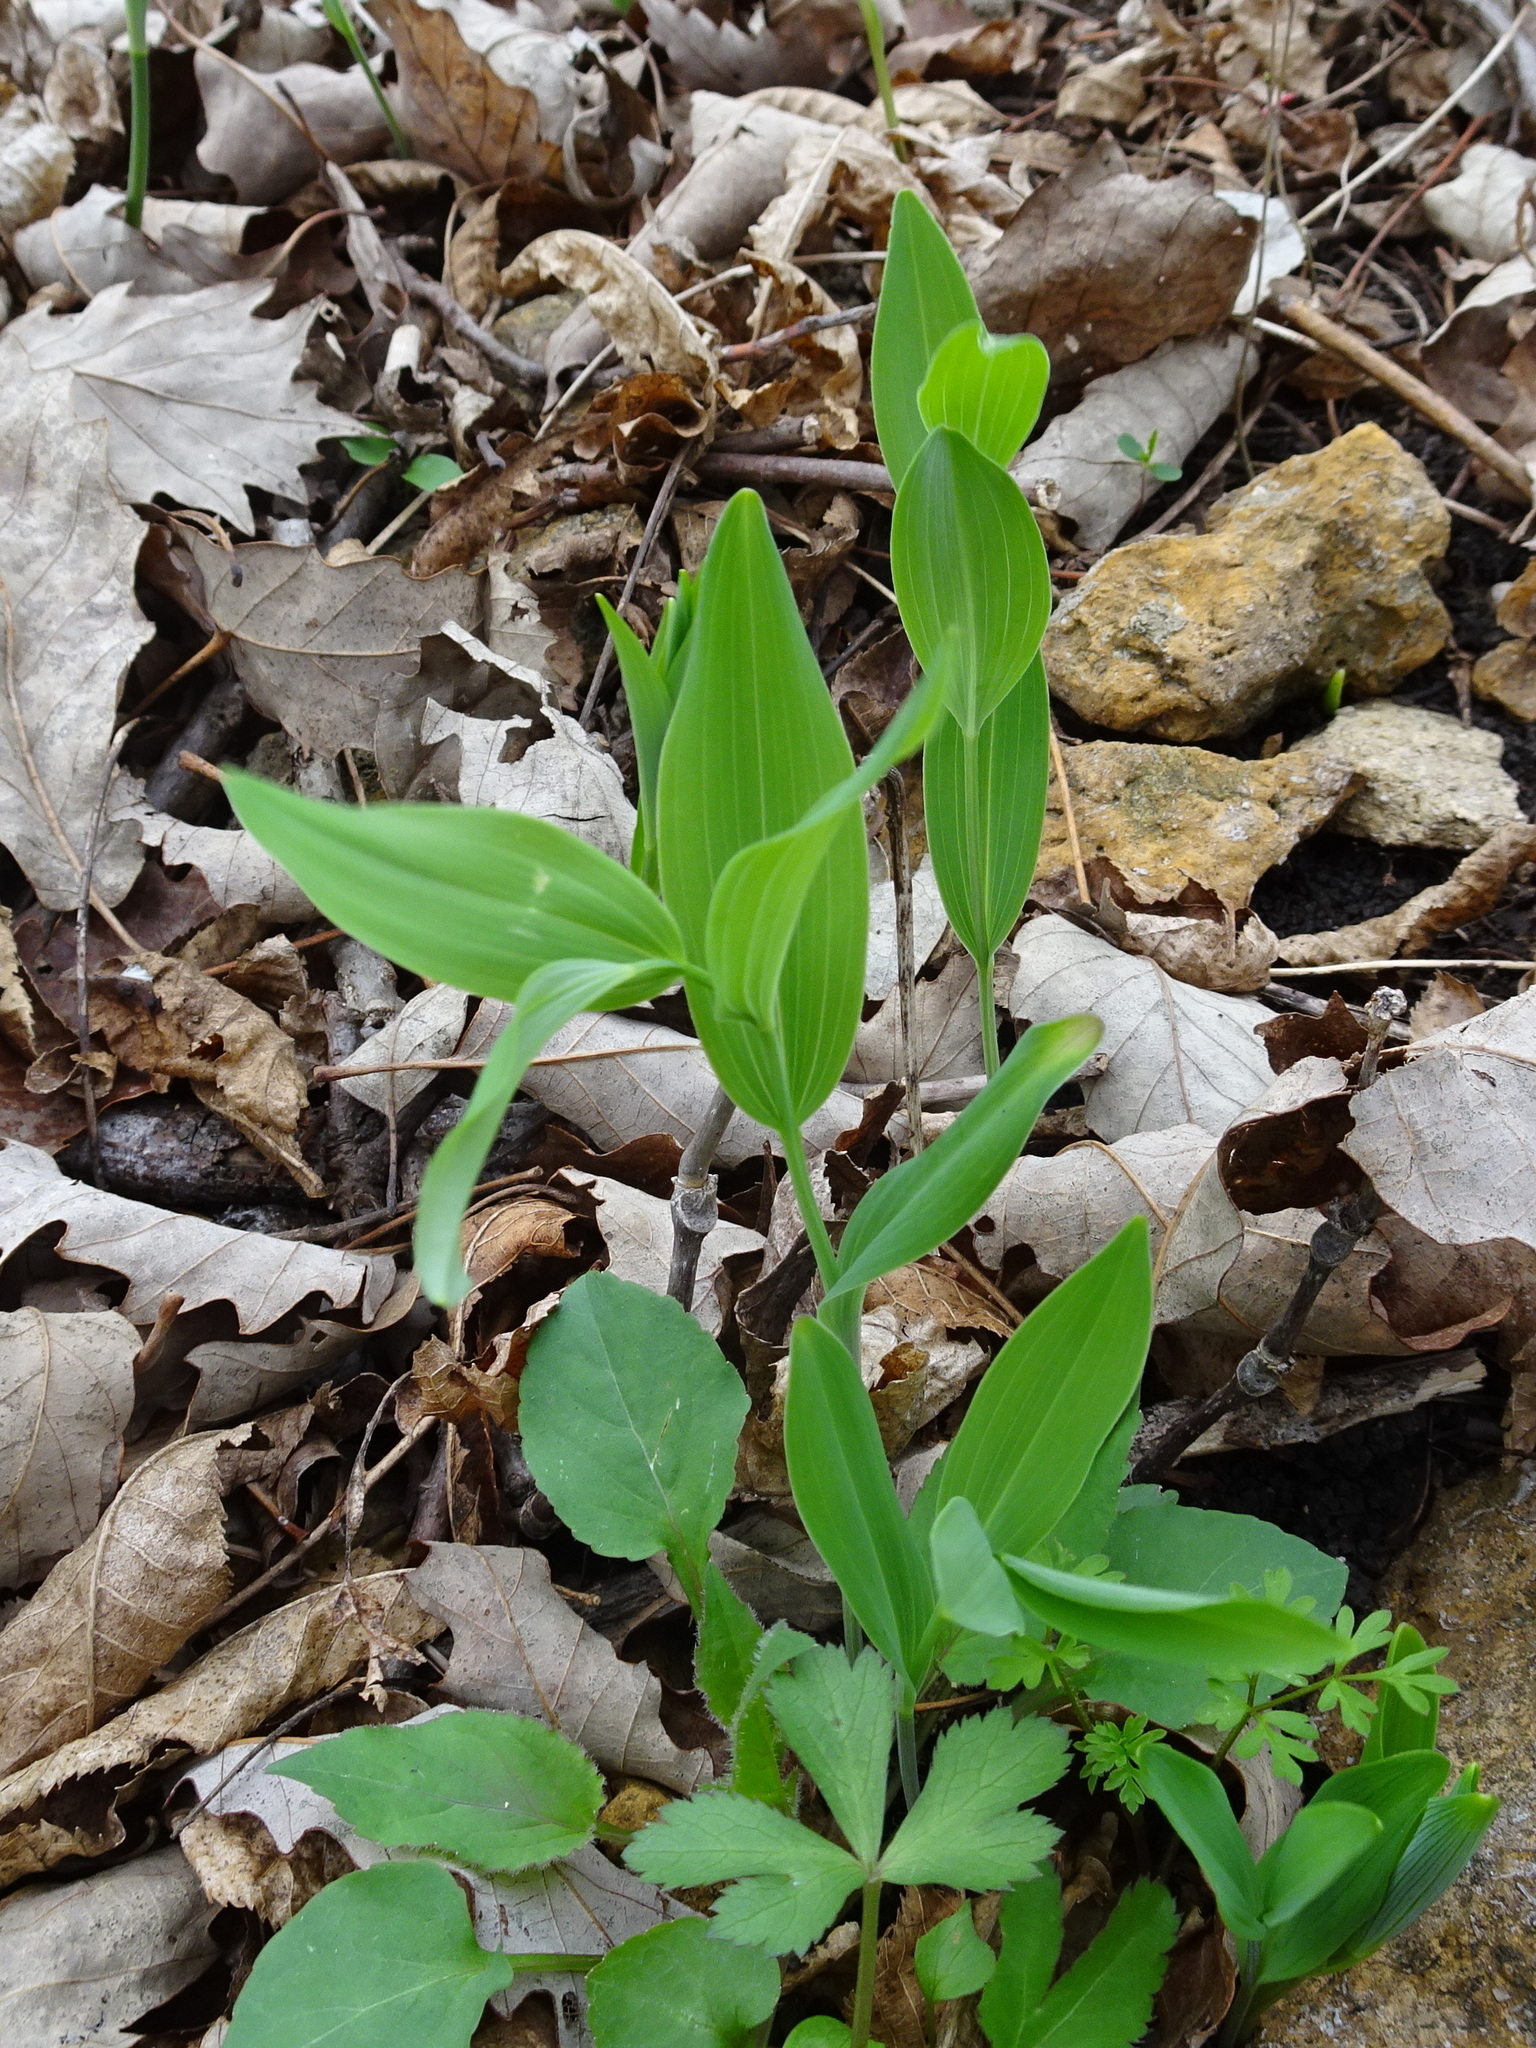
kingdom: Plantae
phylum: Tracheophyta
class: Liliopsida
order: Asparagales
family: Asparagaceae
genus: Polygonatum
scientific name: Polygonatum biflorum
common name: American solomon's-seal
